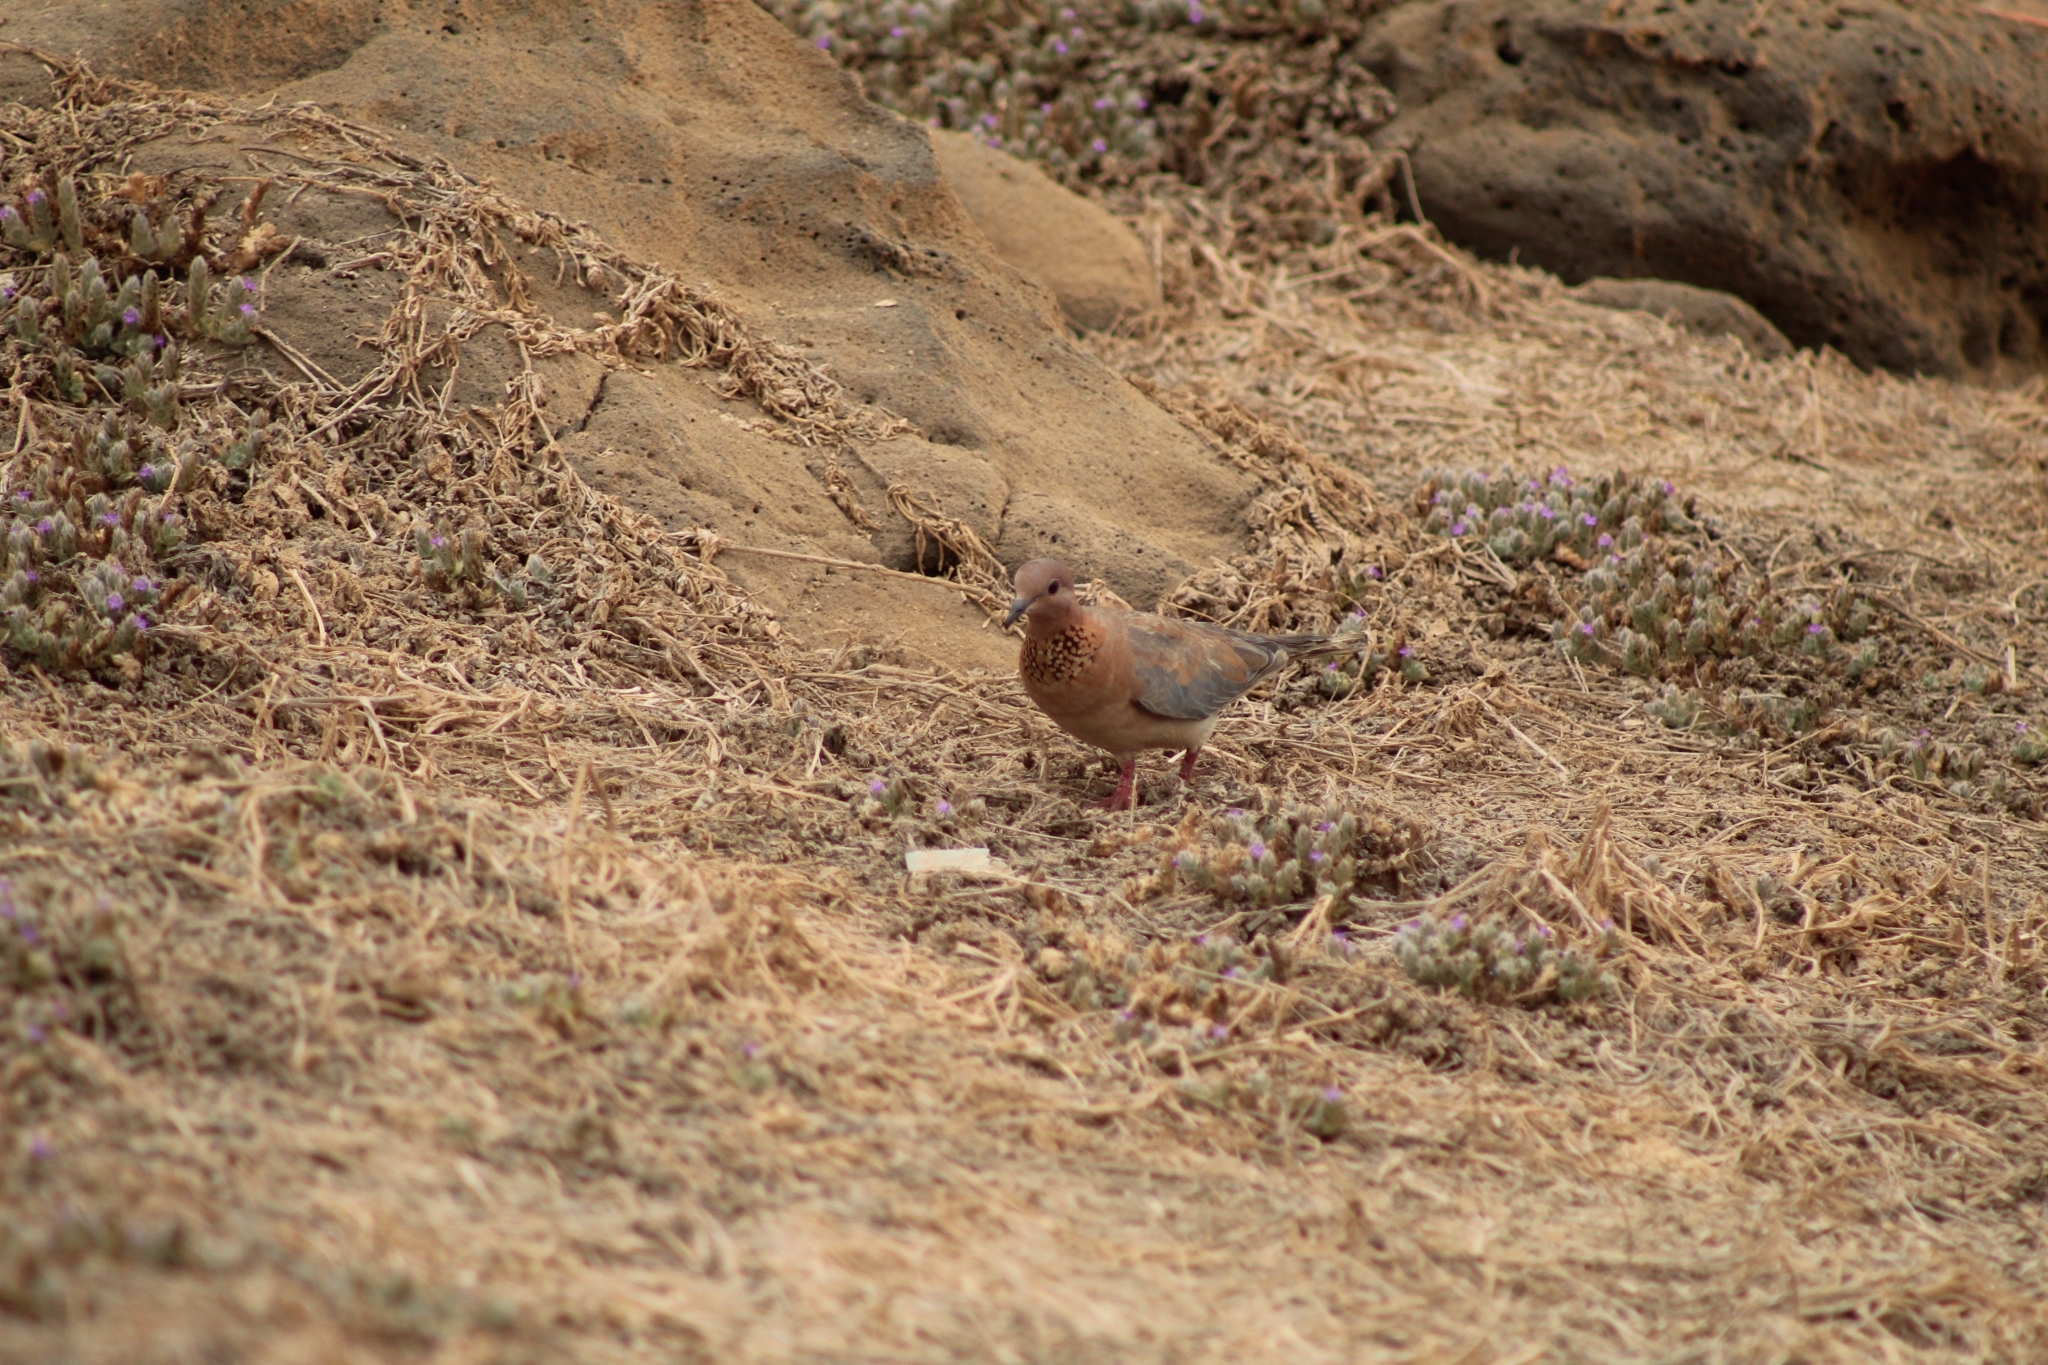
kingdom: Animalia
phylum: Chordata
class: Aves
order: Columbiformes
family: Columbidae
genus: Spilopelia
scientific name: Spilopelia senegalensis
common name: Laughing dove
